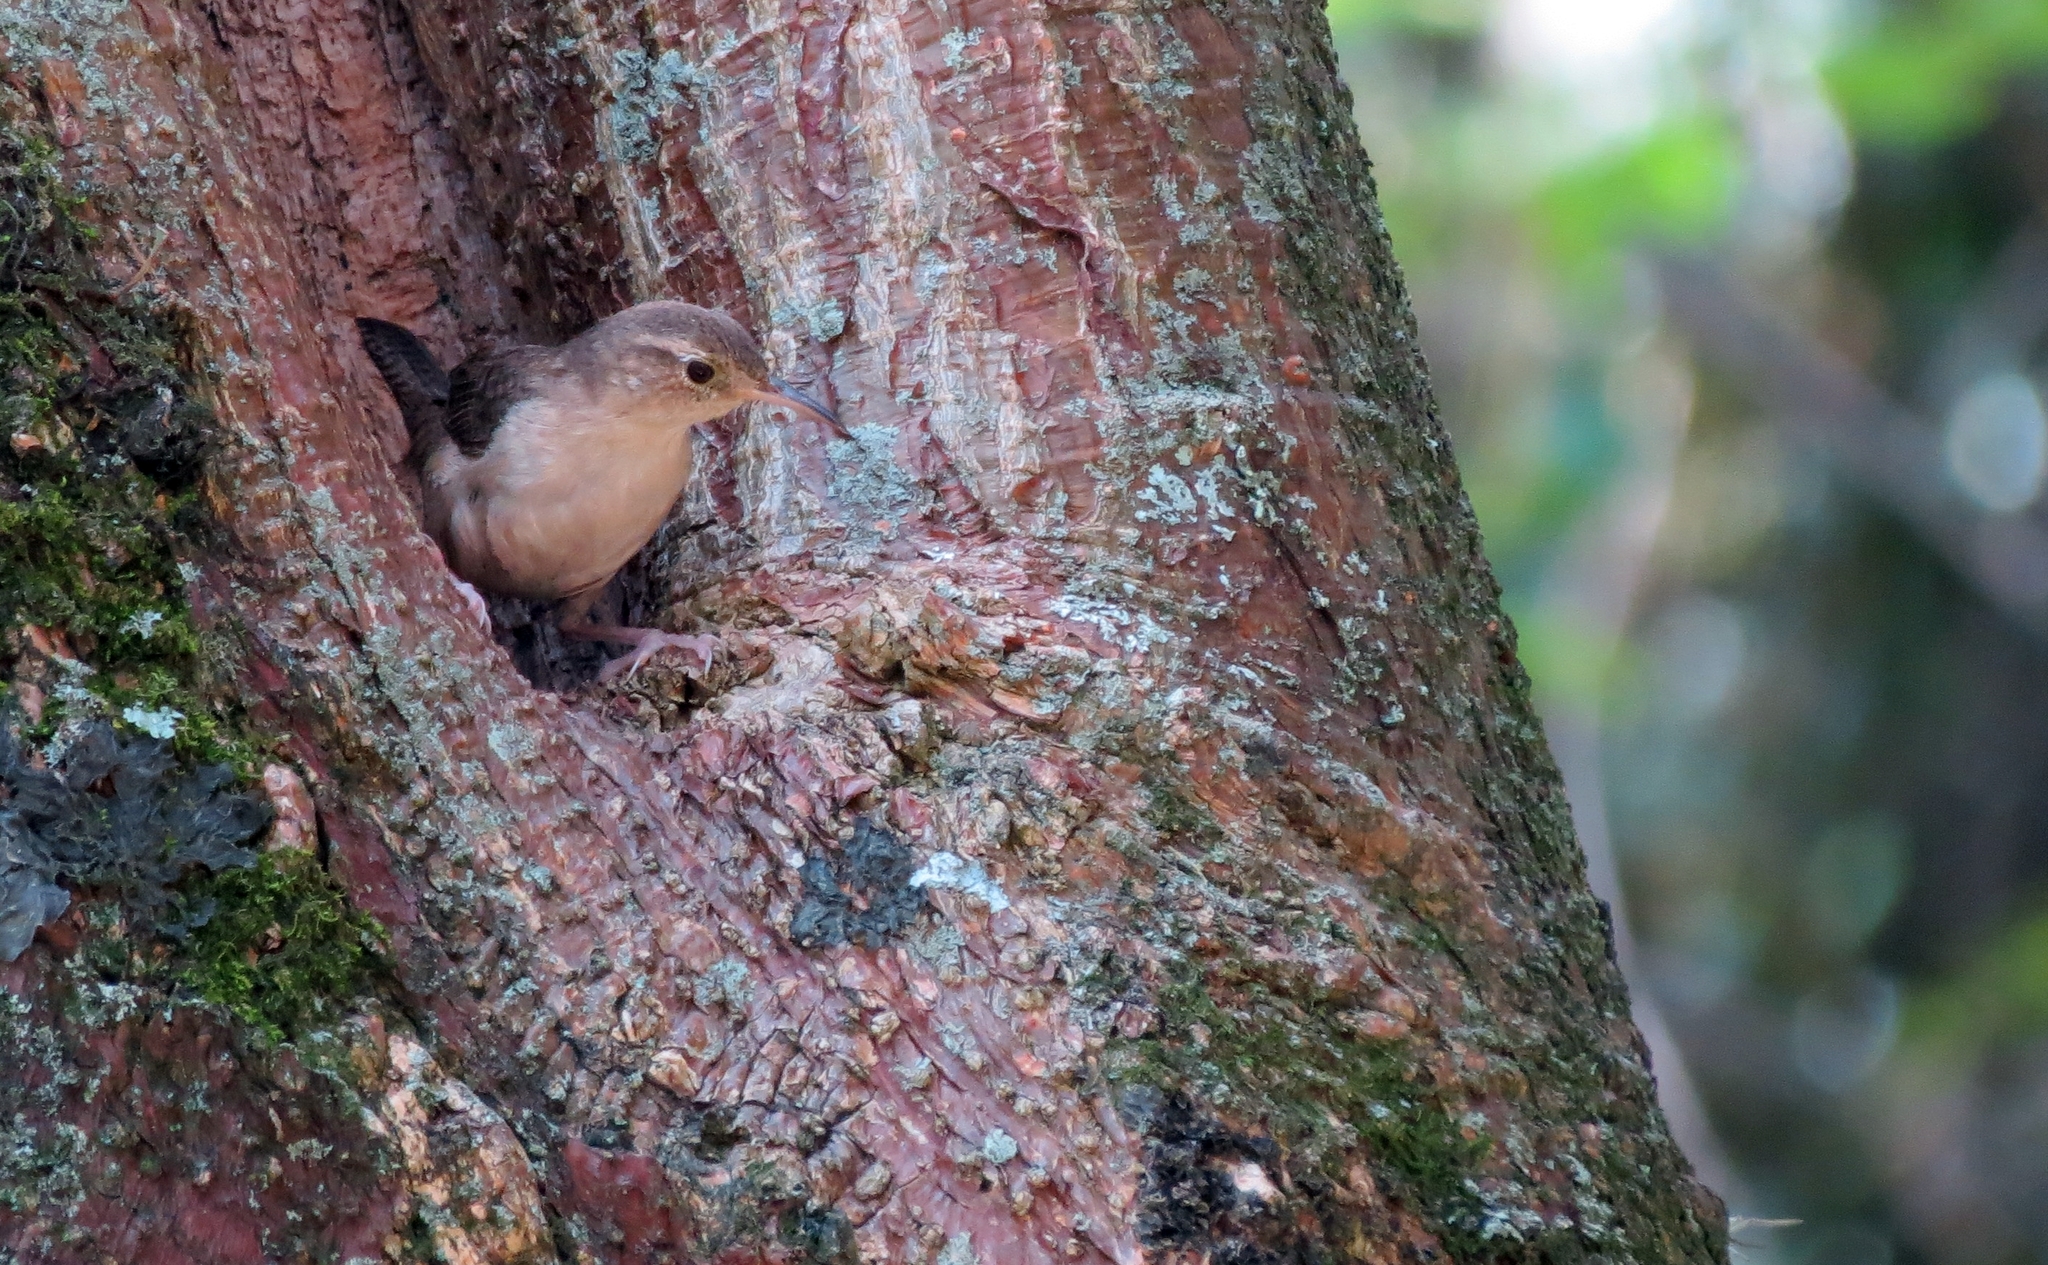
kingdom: Animalia
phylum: Chordata
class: Aves
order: Passeriformes
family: Troglodytidae
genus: Troglodytes
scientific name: Troglodytes aedon
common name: House wren
